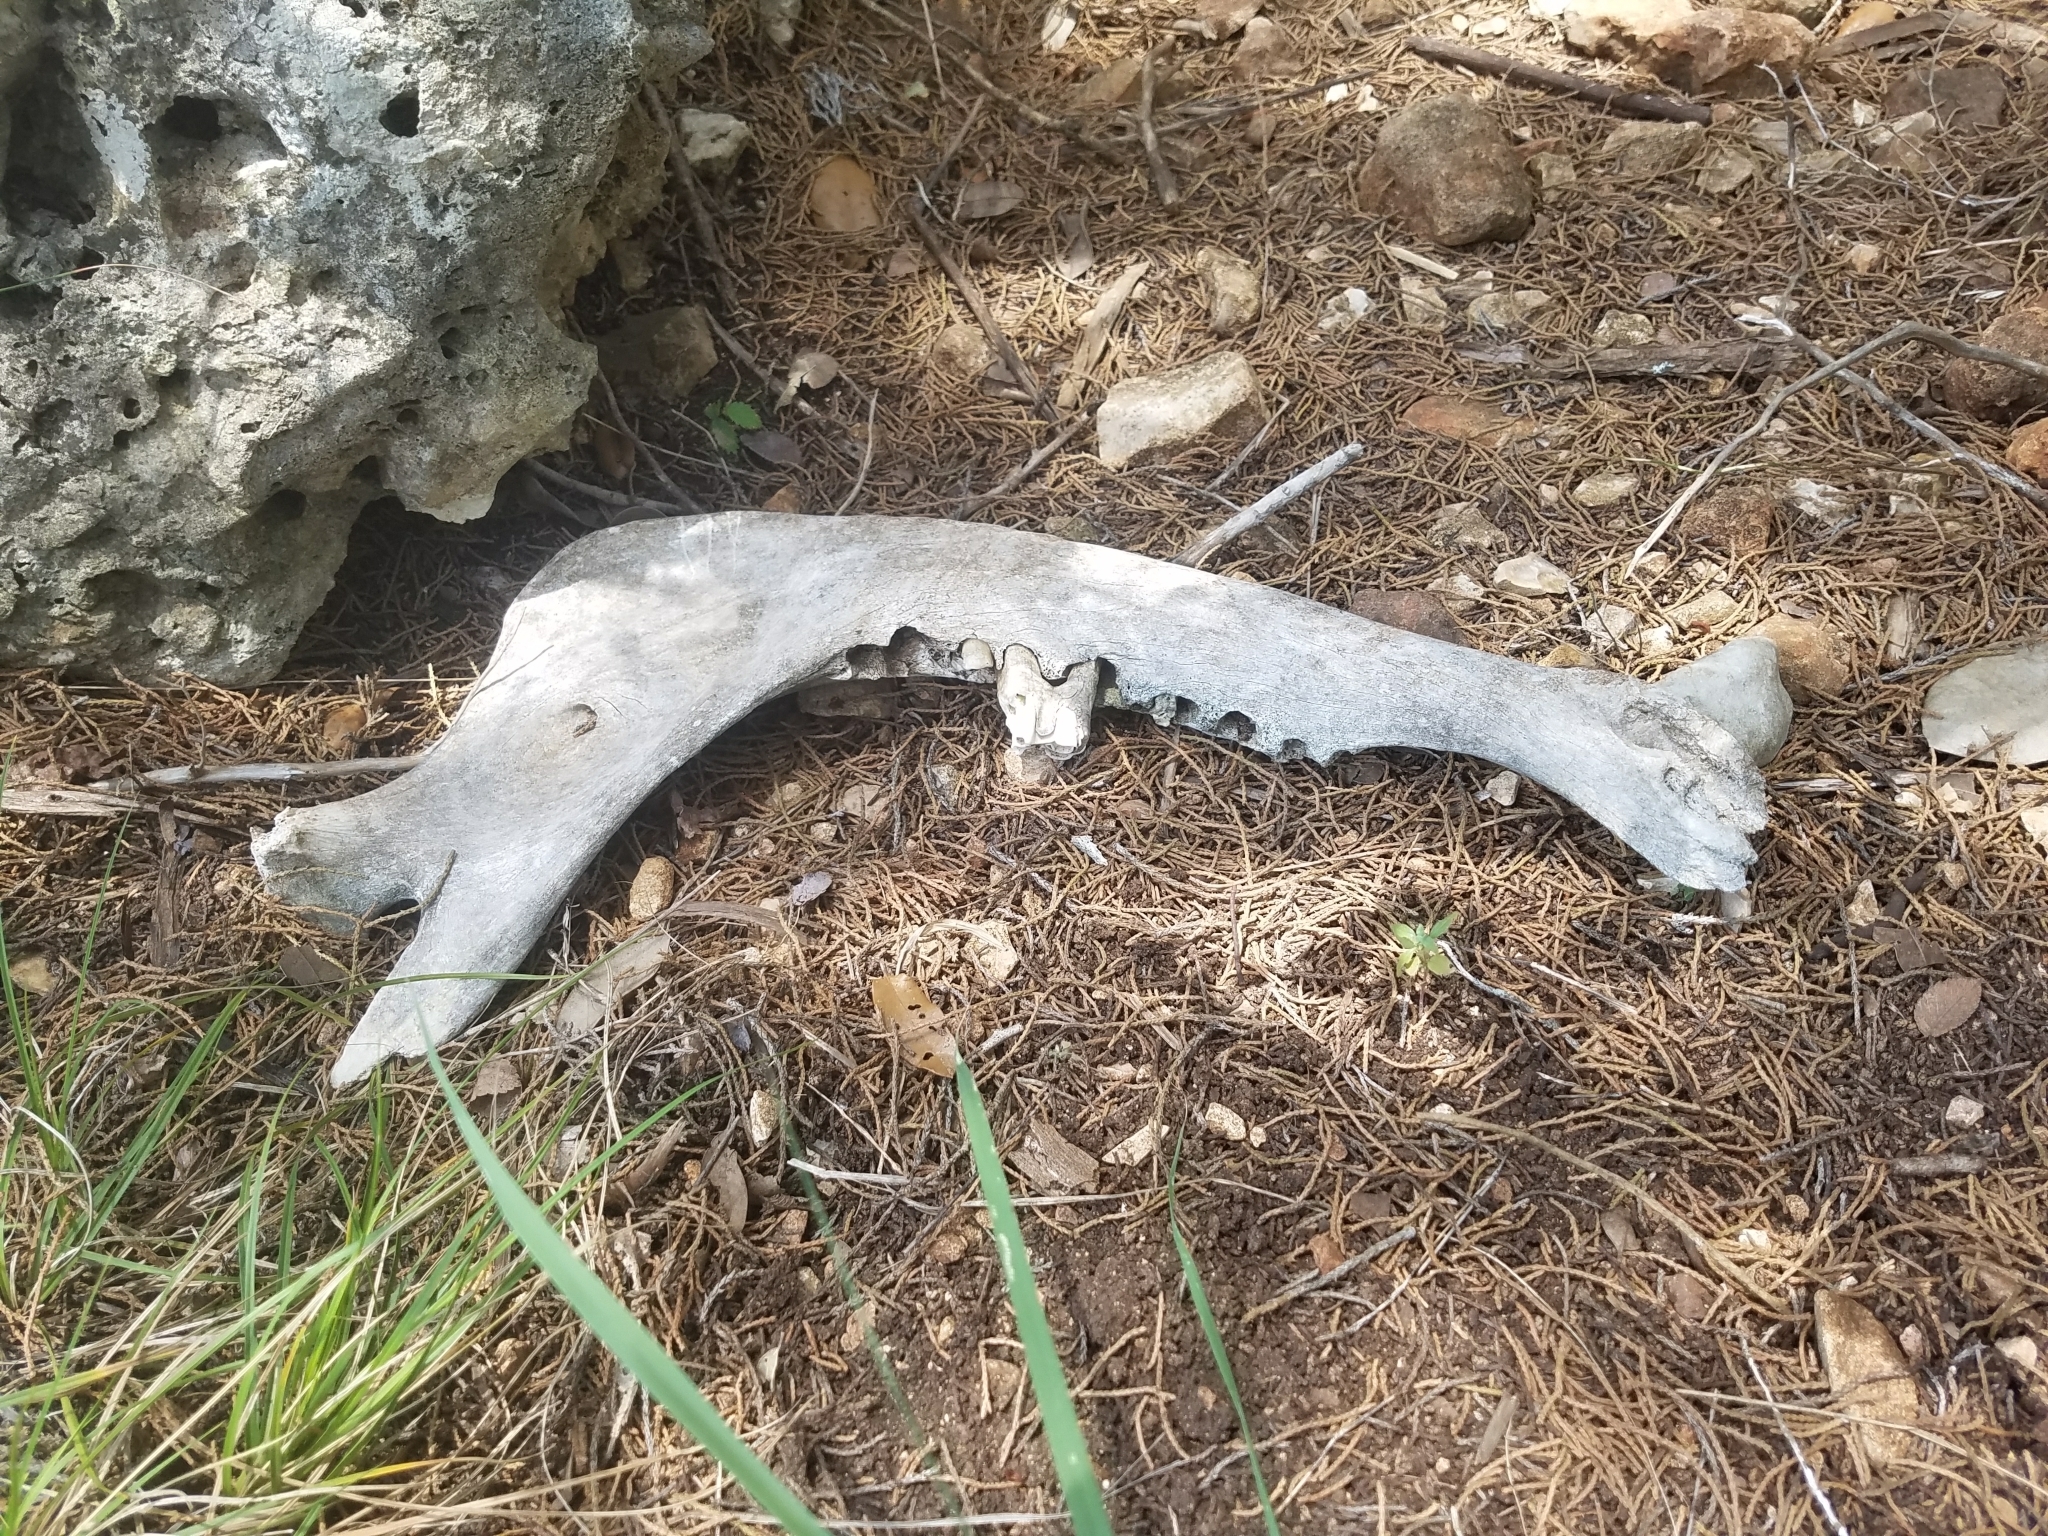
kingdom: Animalia
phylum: Chordata
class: Mammalia
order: Artiodactyla
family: Cervidae
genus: Odocoileus
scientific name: Odocoileus virginianus
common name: White-tailed deer
